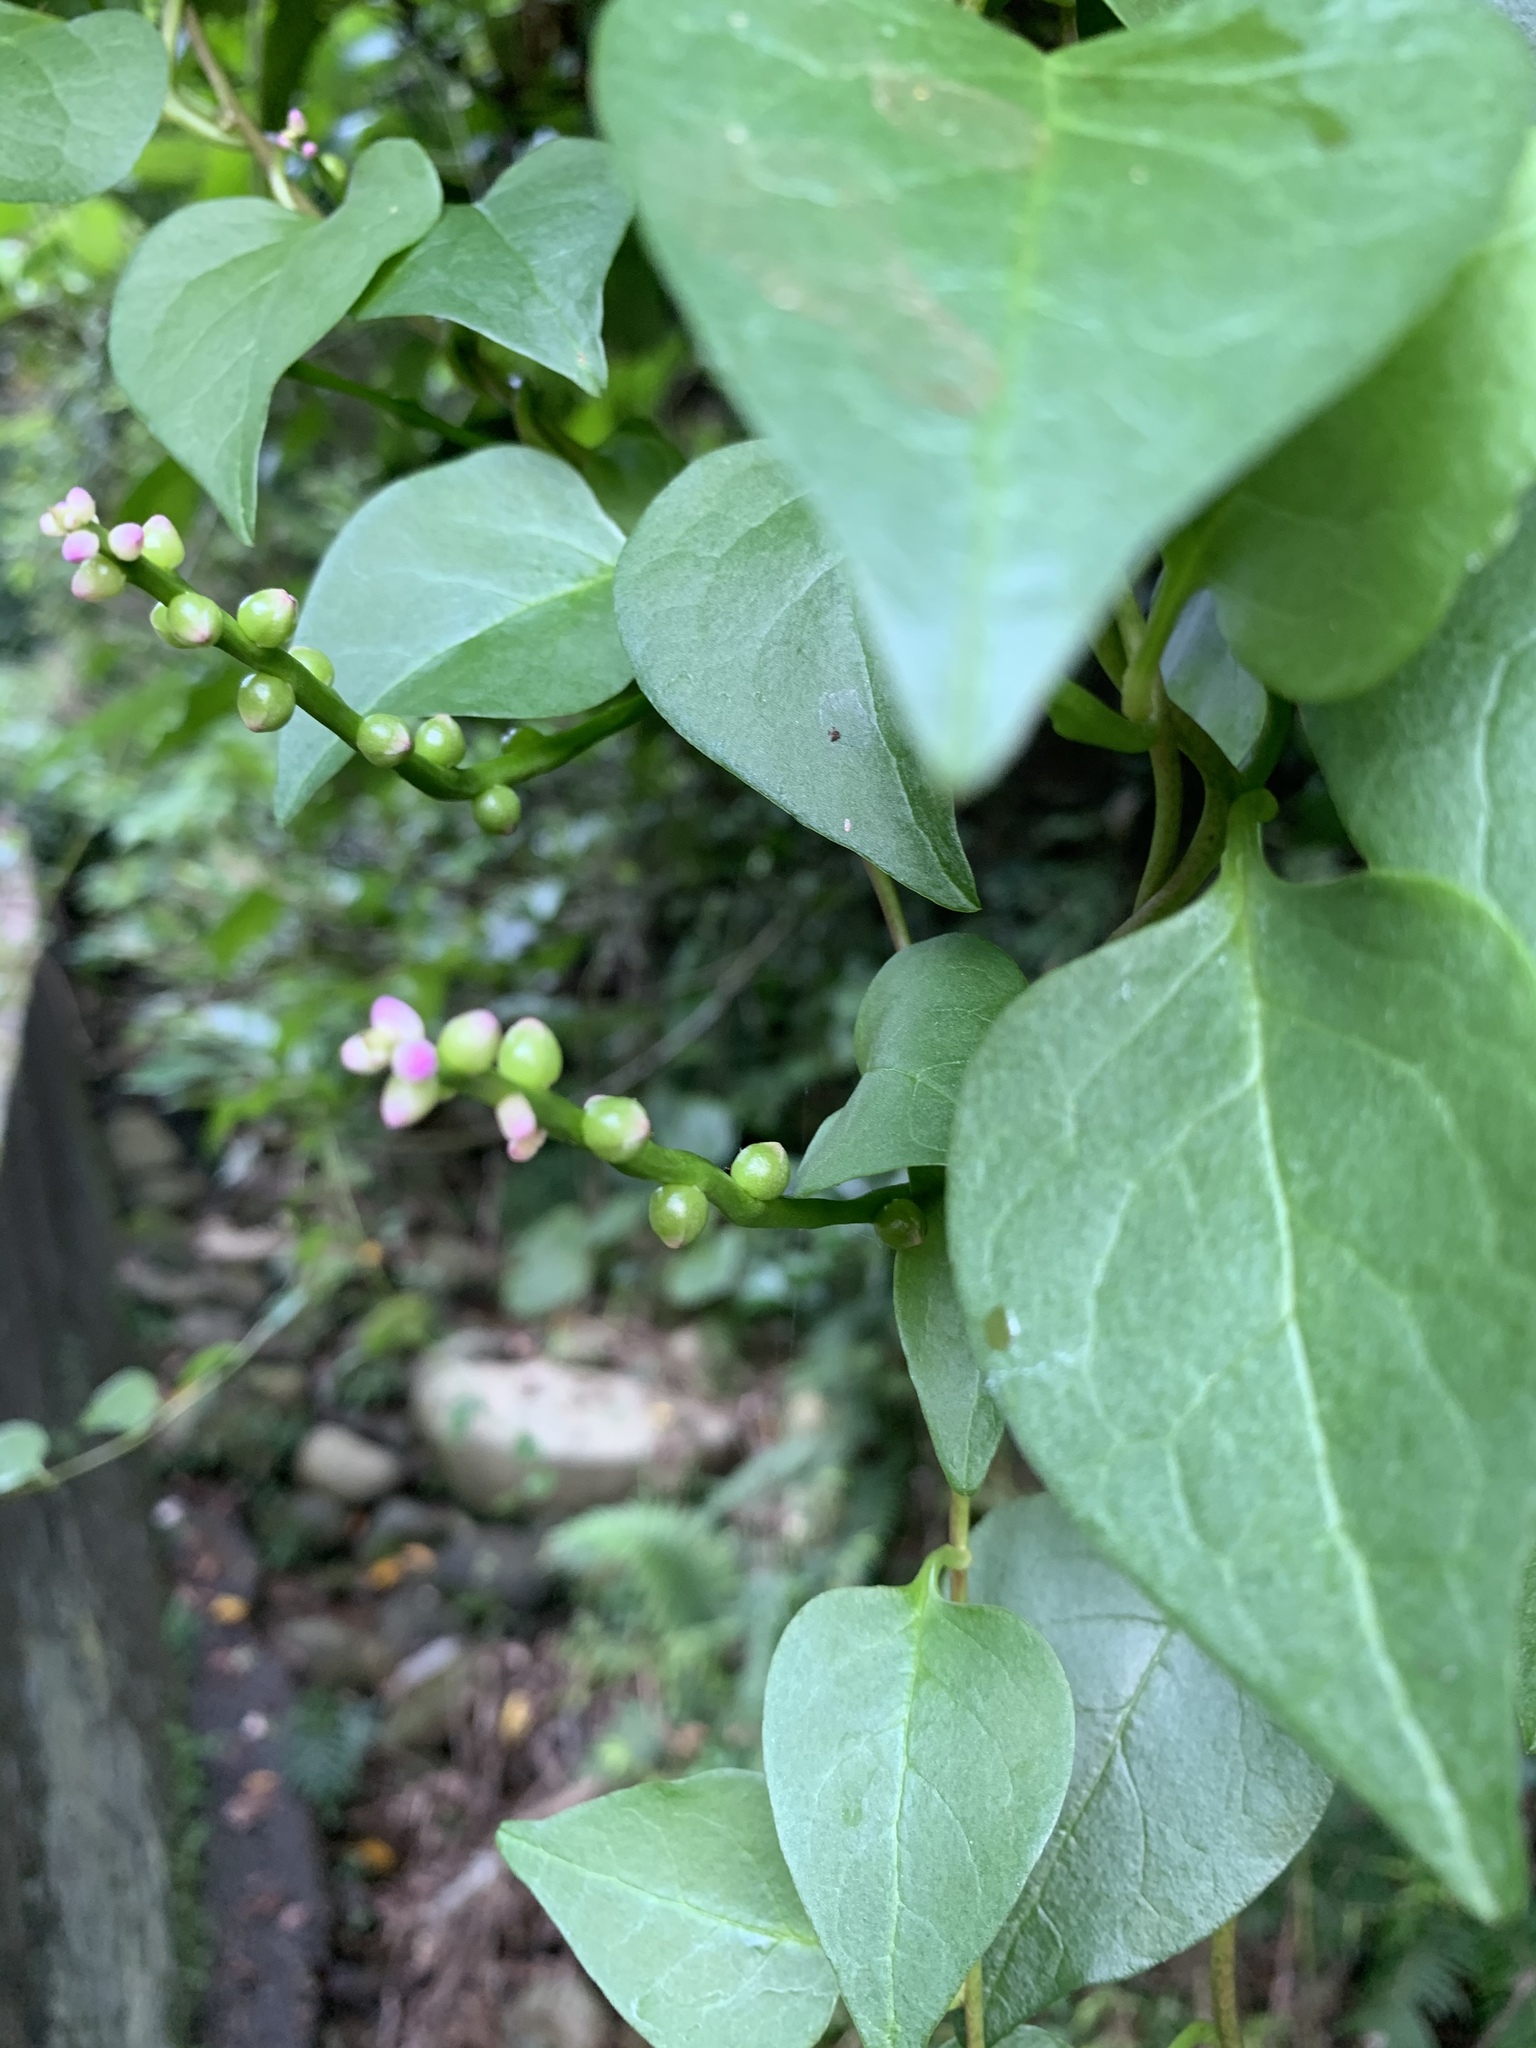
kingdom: Plantae
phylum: Tracheophyta
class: Magnoliopsida
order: Caryophyllales
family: Basellaceae
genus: Basella
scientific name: Basella alba
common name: Indian spinach
